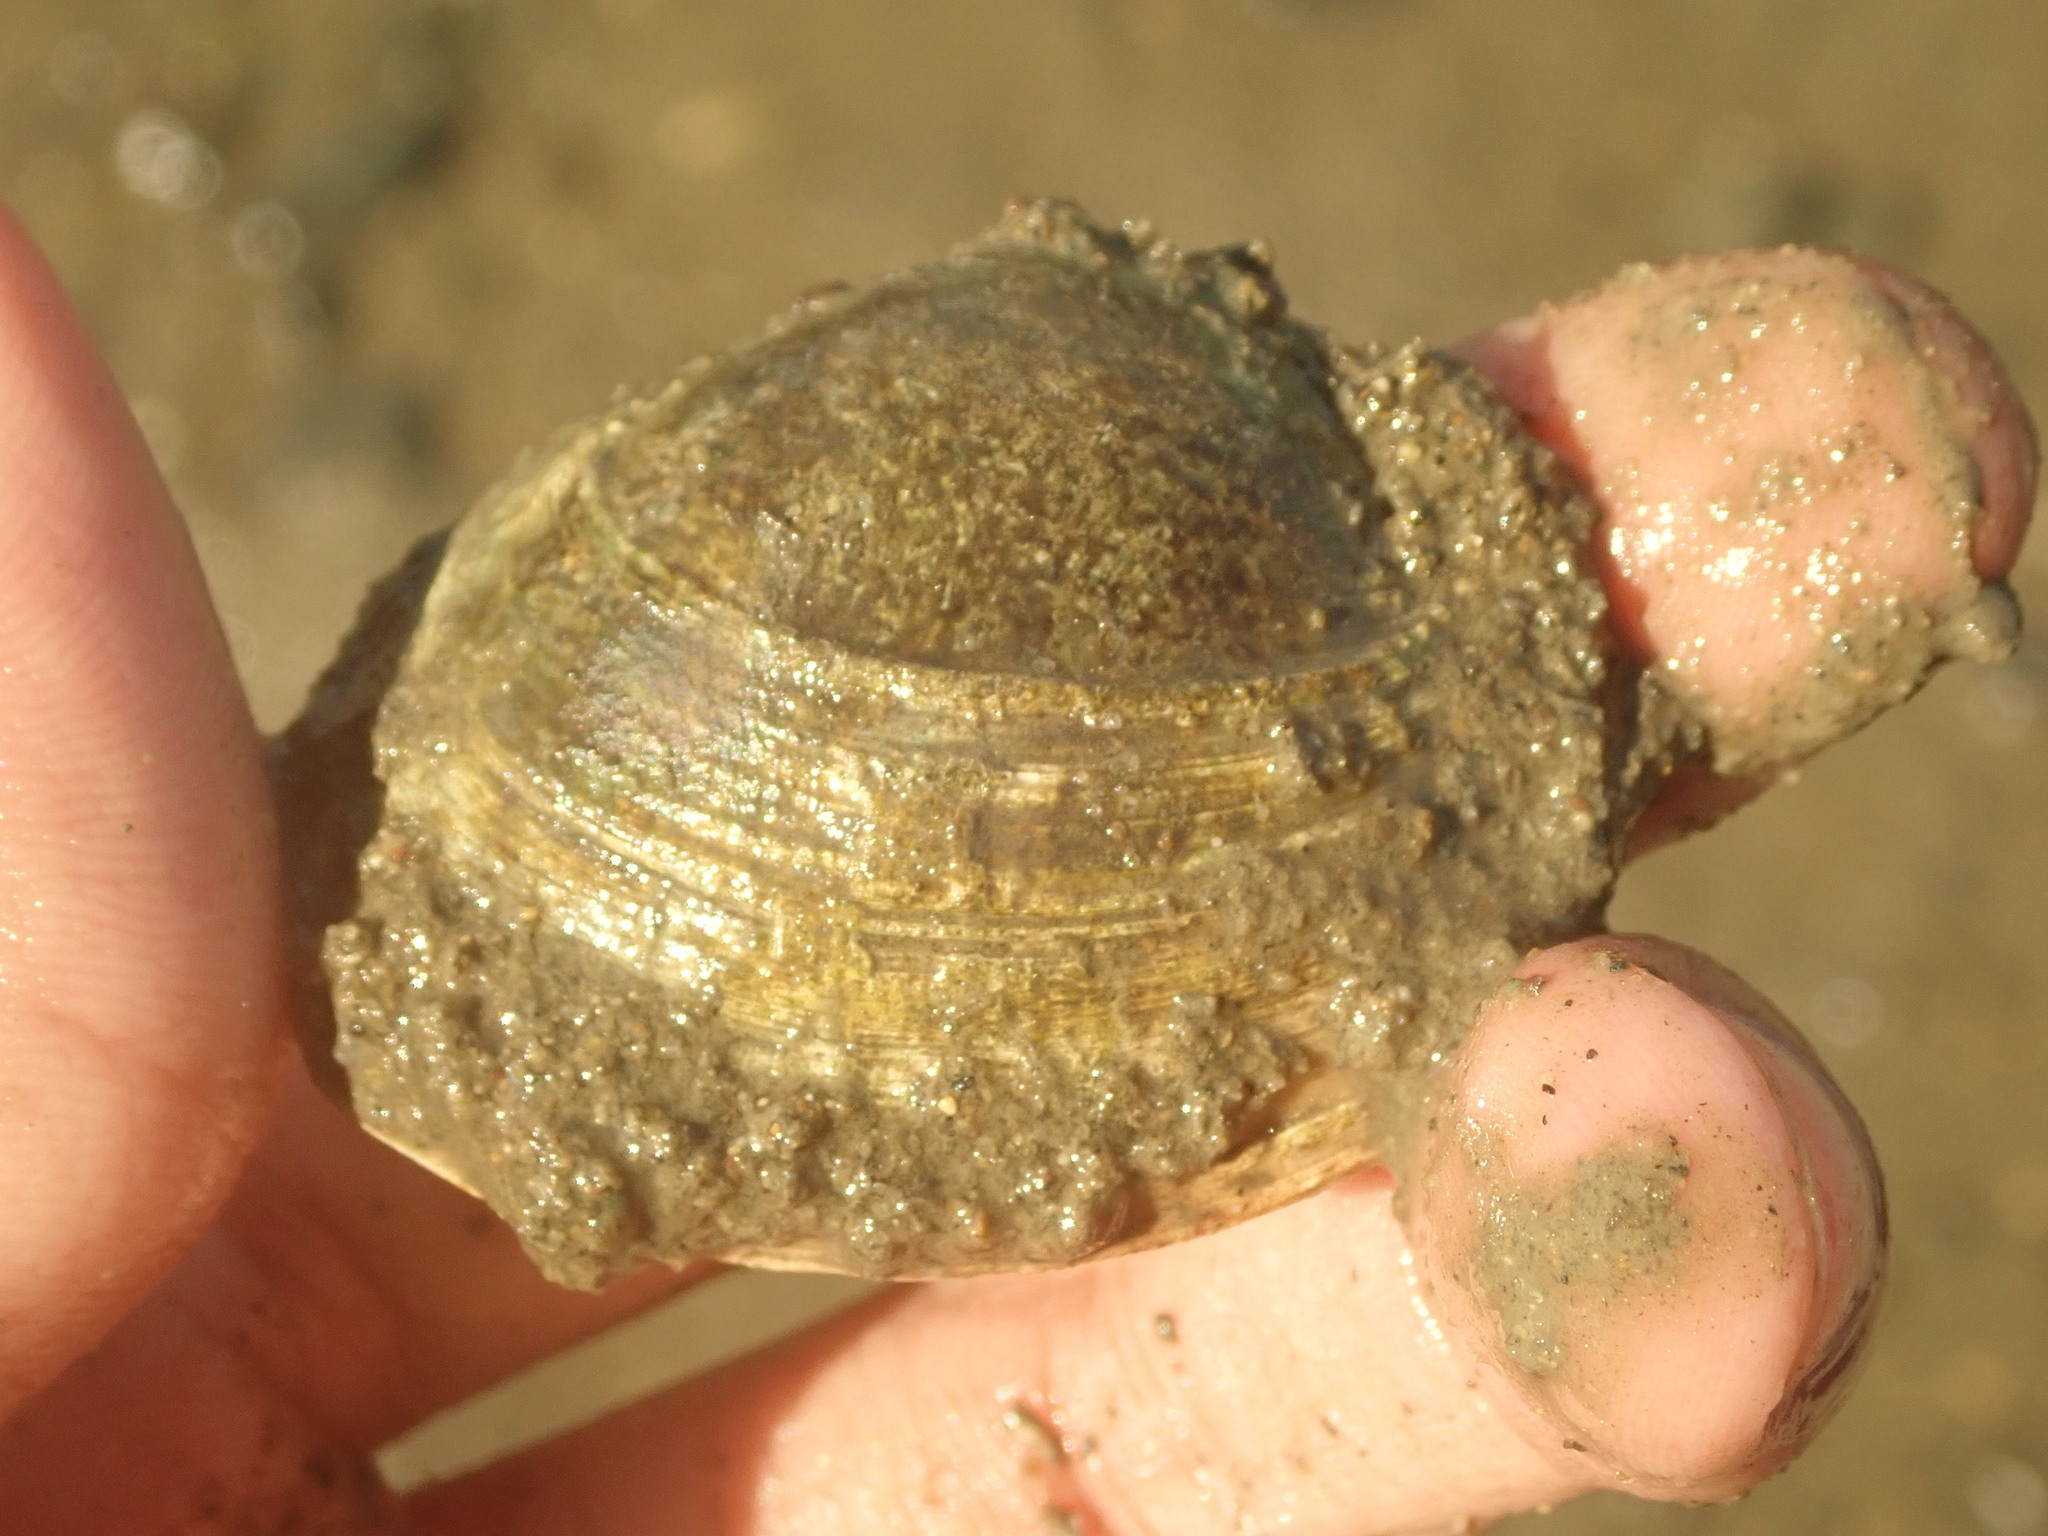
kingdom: Animalia
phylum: Mollusca
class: Bivalvia
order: Venerida
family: Veneridae
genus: Ruditapes
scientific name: Ruditapes philippinarum
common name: Manila clam
